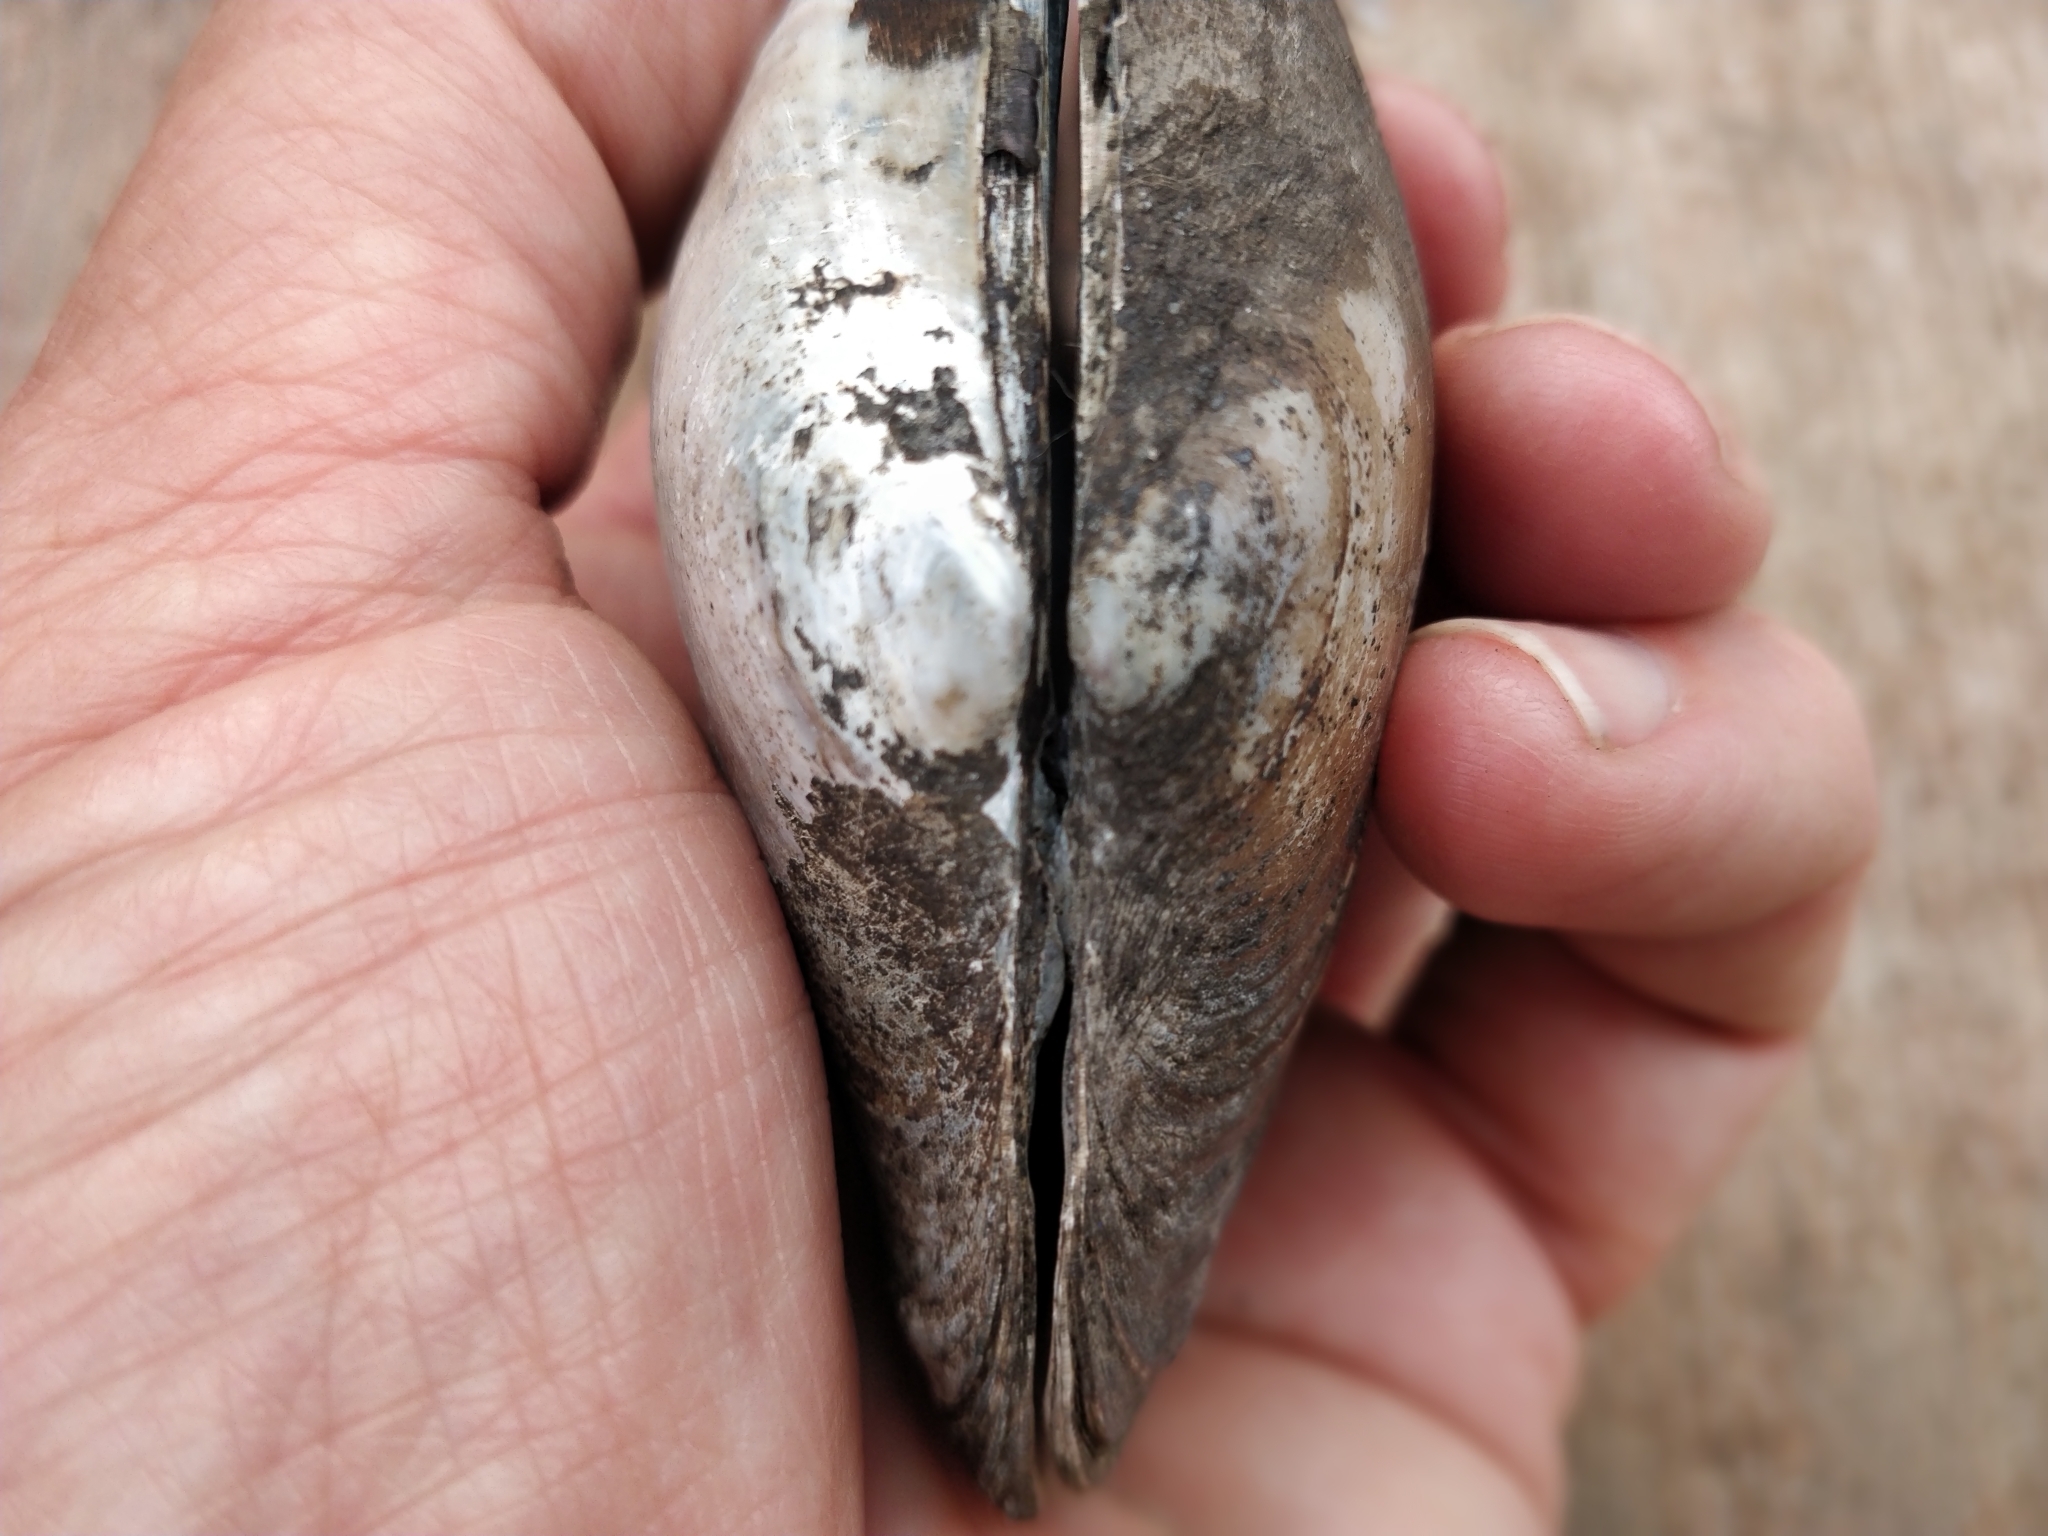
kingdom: Animalia
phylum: Mollusca
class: Bivalvia
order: Unionida
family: Unionidae
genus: Potamilus
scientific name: Potamilus alatus
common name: Pink heelsplitter
